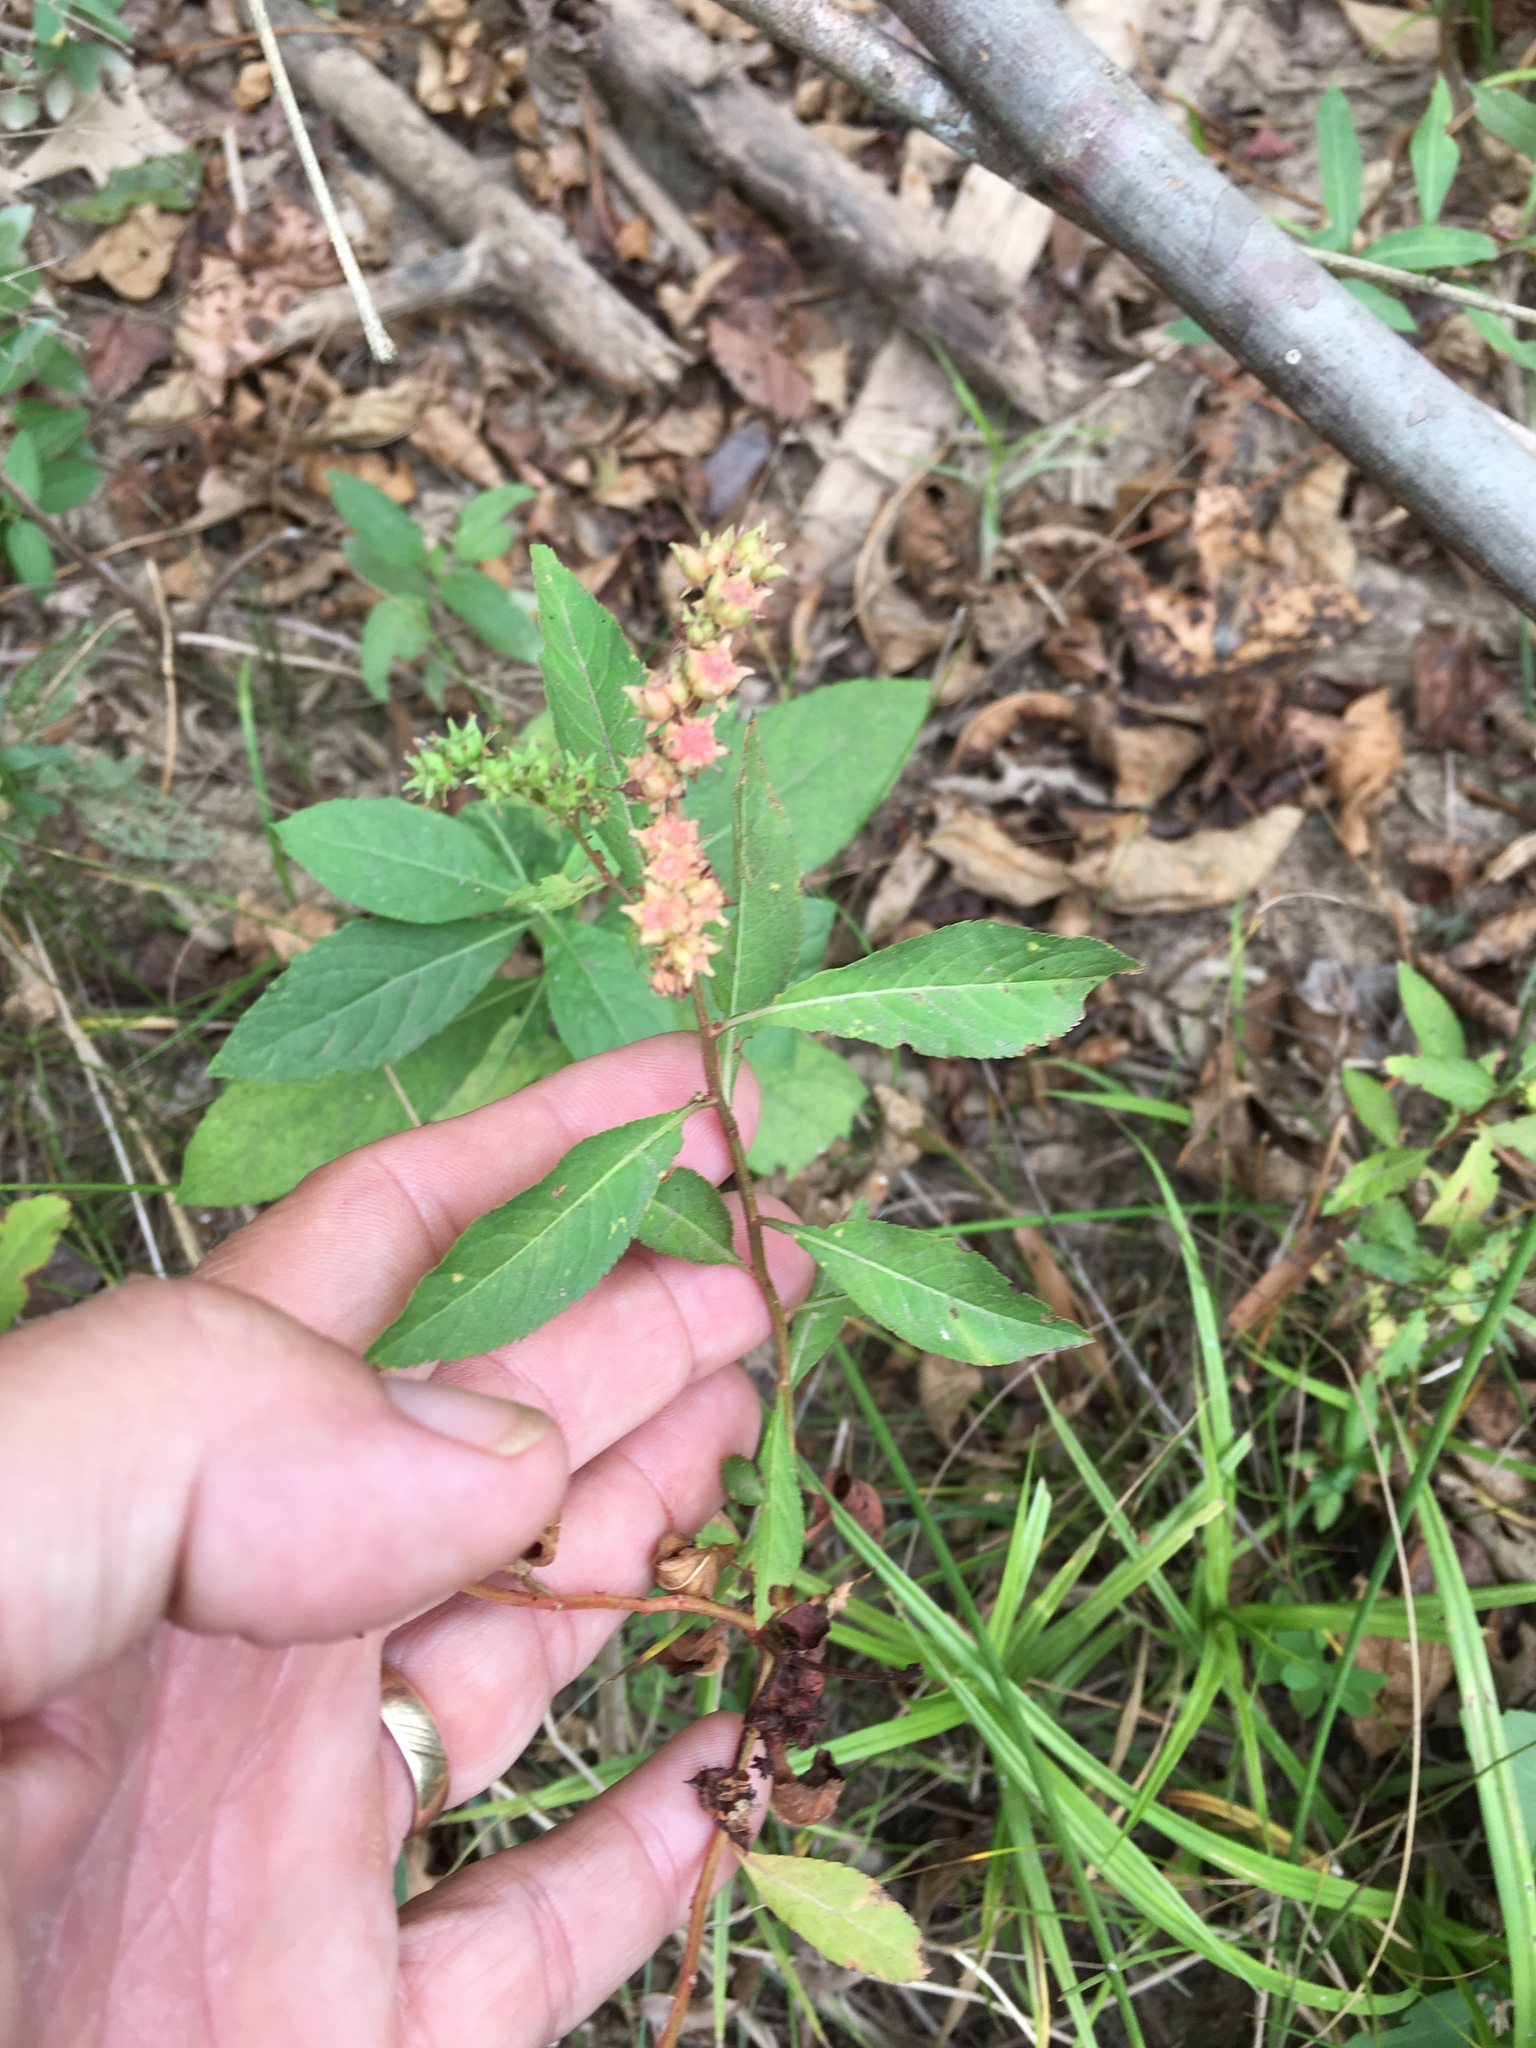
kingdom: Plantae
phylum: Tracheophyta
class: Magnoliopsida
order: Saxifragales
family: Penthoraceae
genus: Penthorum
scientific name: Penthorum sedoides
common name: Ditch stonecrop
